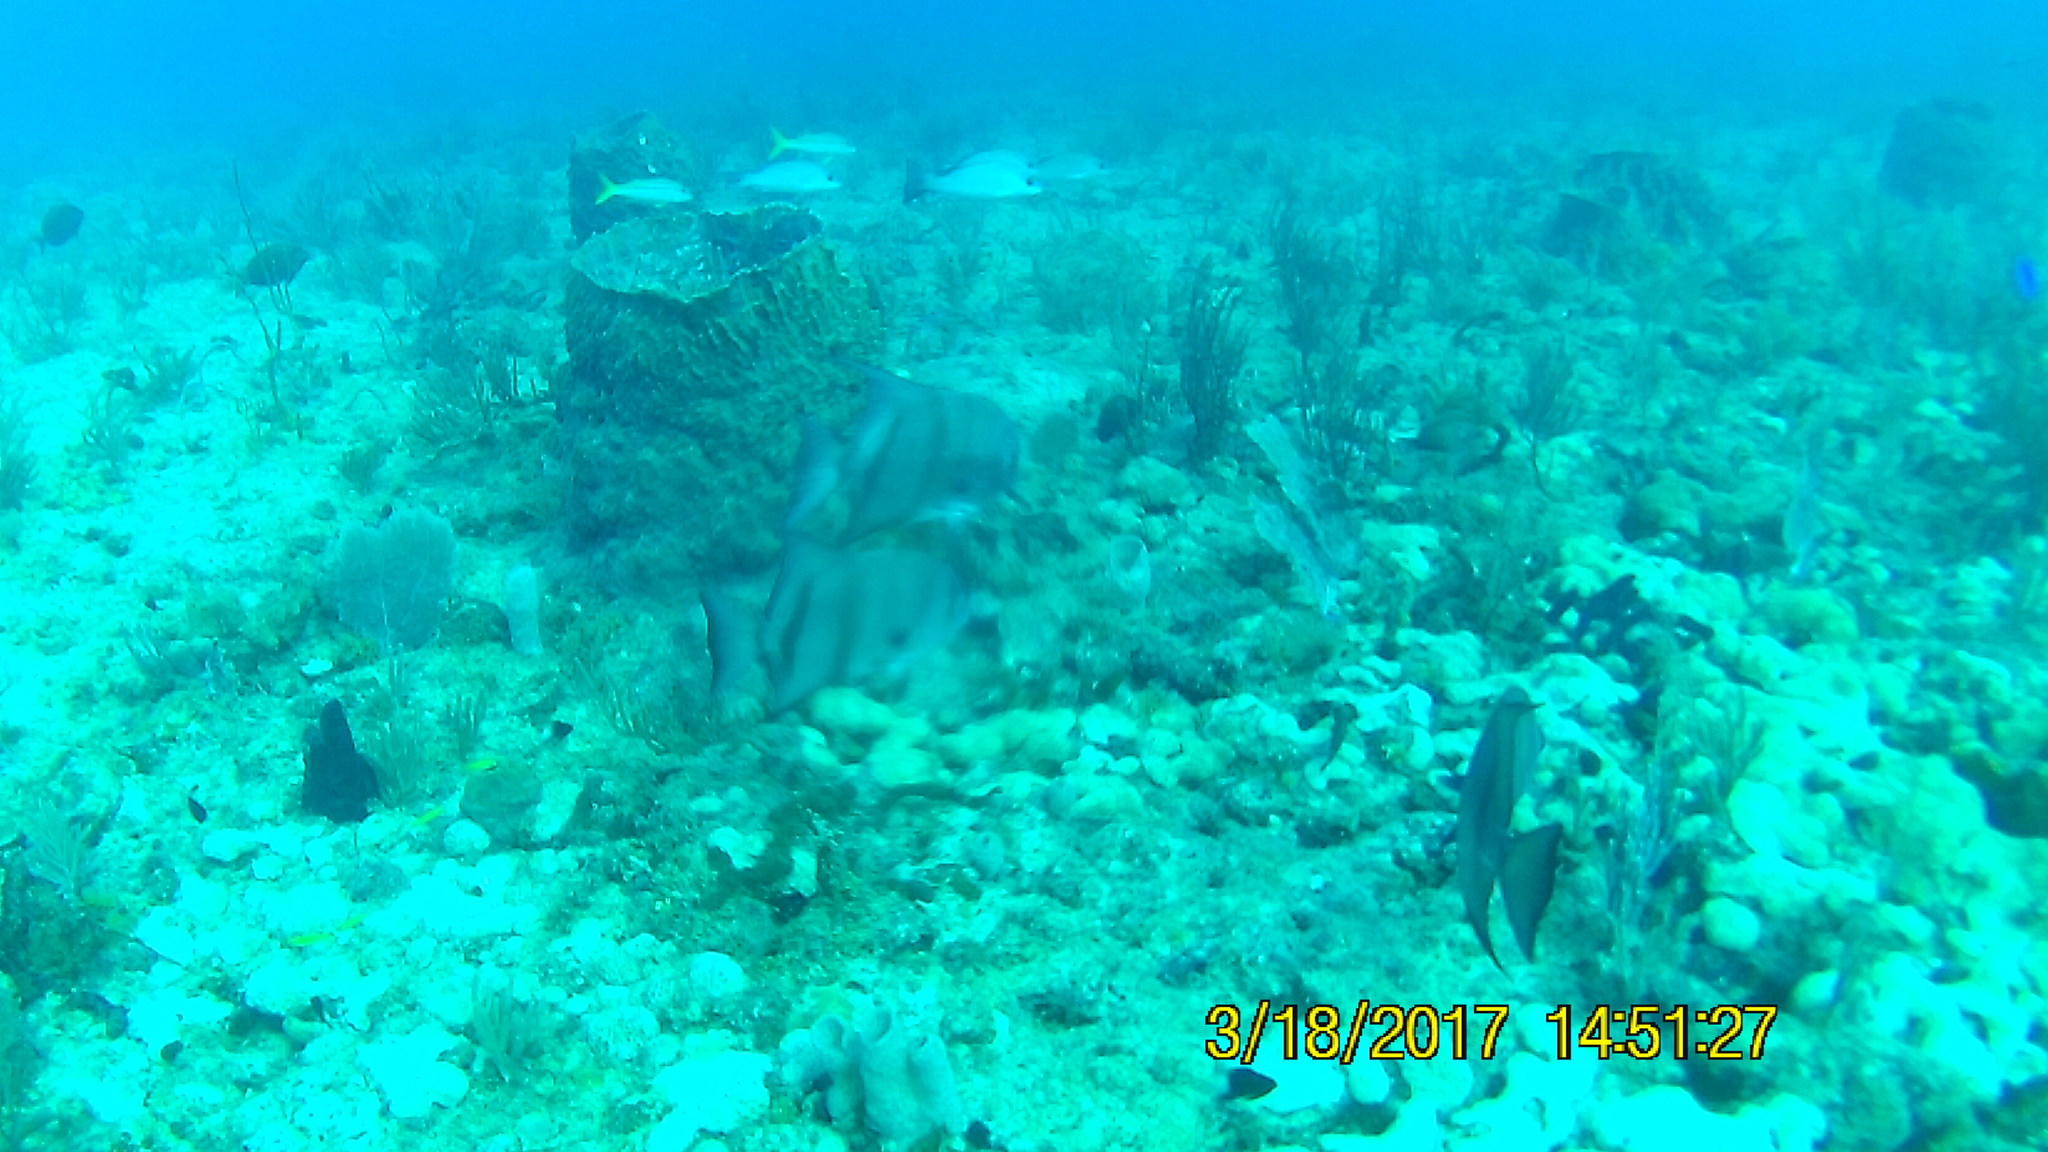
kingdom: Animalia
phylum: Chordata
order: Perciformes
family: Ephippidae
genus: Chaetodipterus
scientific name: Chaetodipterus faber
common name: Ocean cobbler
